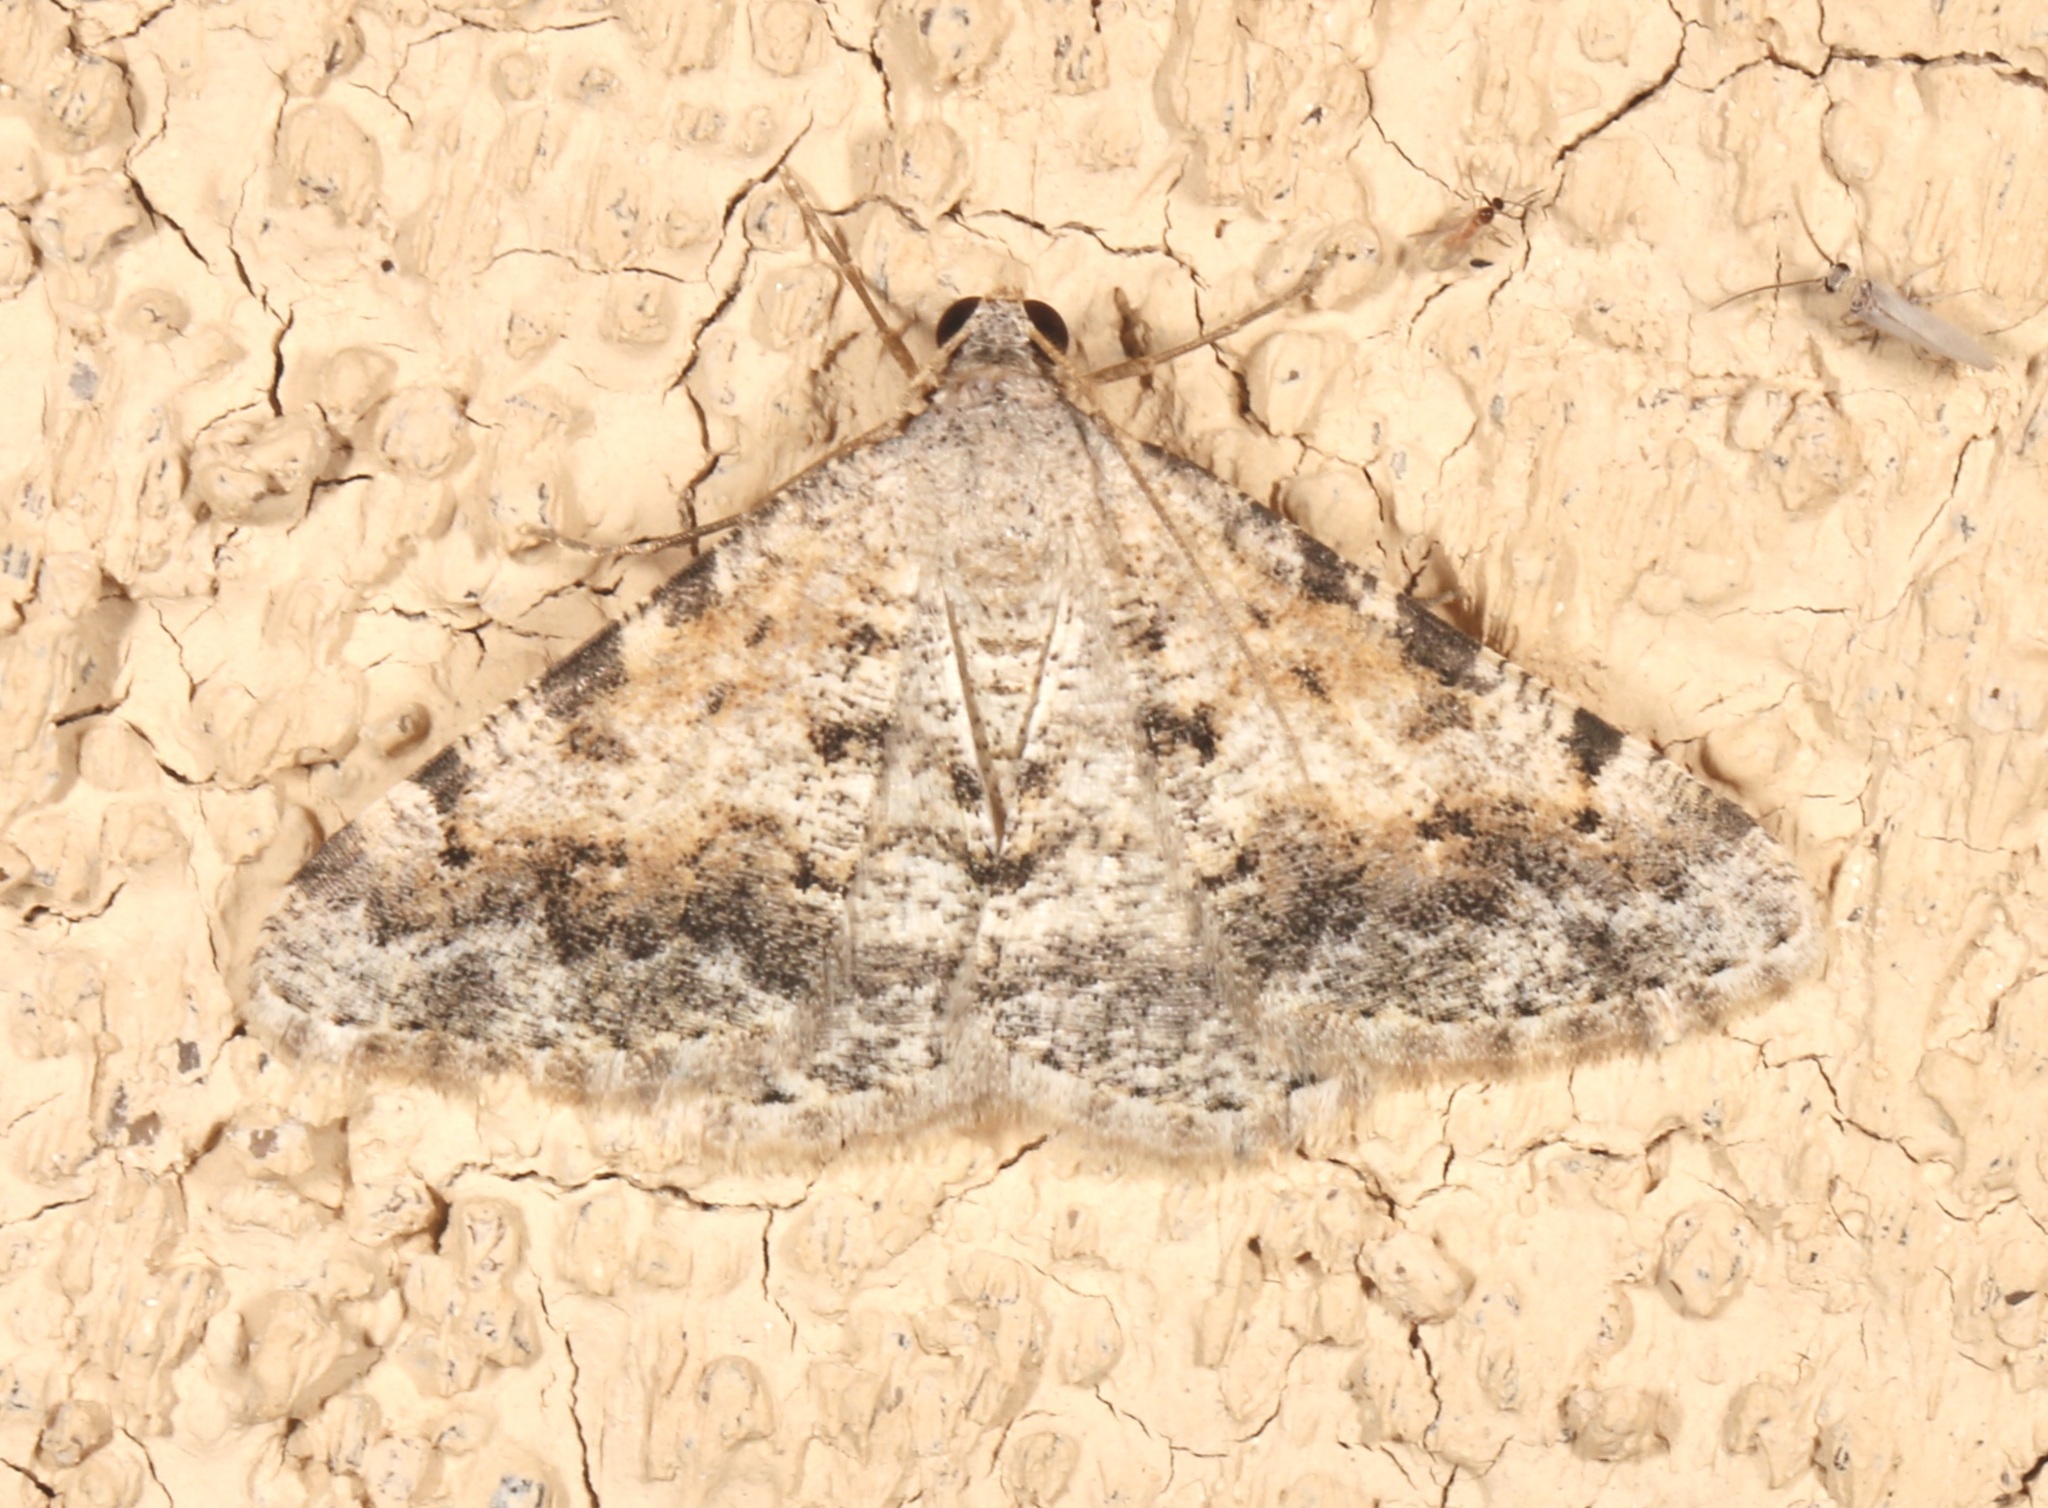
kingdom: Animalia
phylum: Arthropoda
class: Insecta
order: Lepidoptera
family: Geometridae
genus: Digrammia
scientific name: Digrammia colorata
